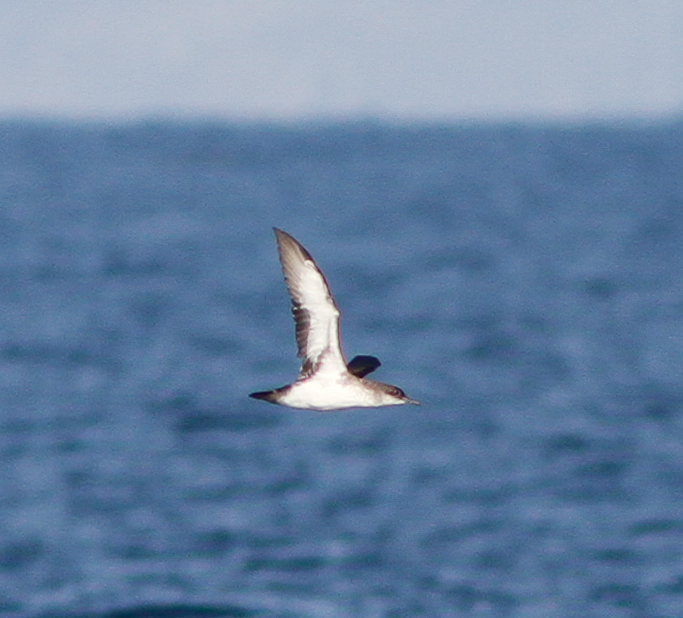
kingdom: Animalia
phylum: Chordata
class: Aves
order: Procellariiformes
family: Procellariidae
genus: Puffinus
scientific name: Puffinus opisthomelas
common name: Black-vented shearwater
